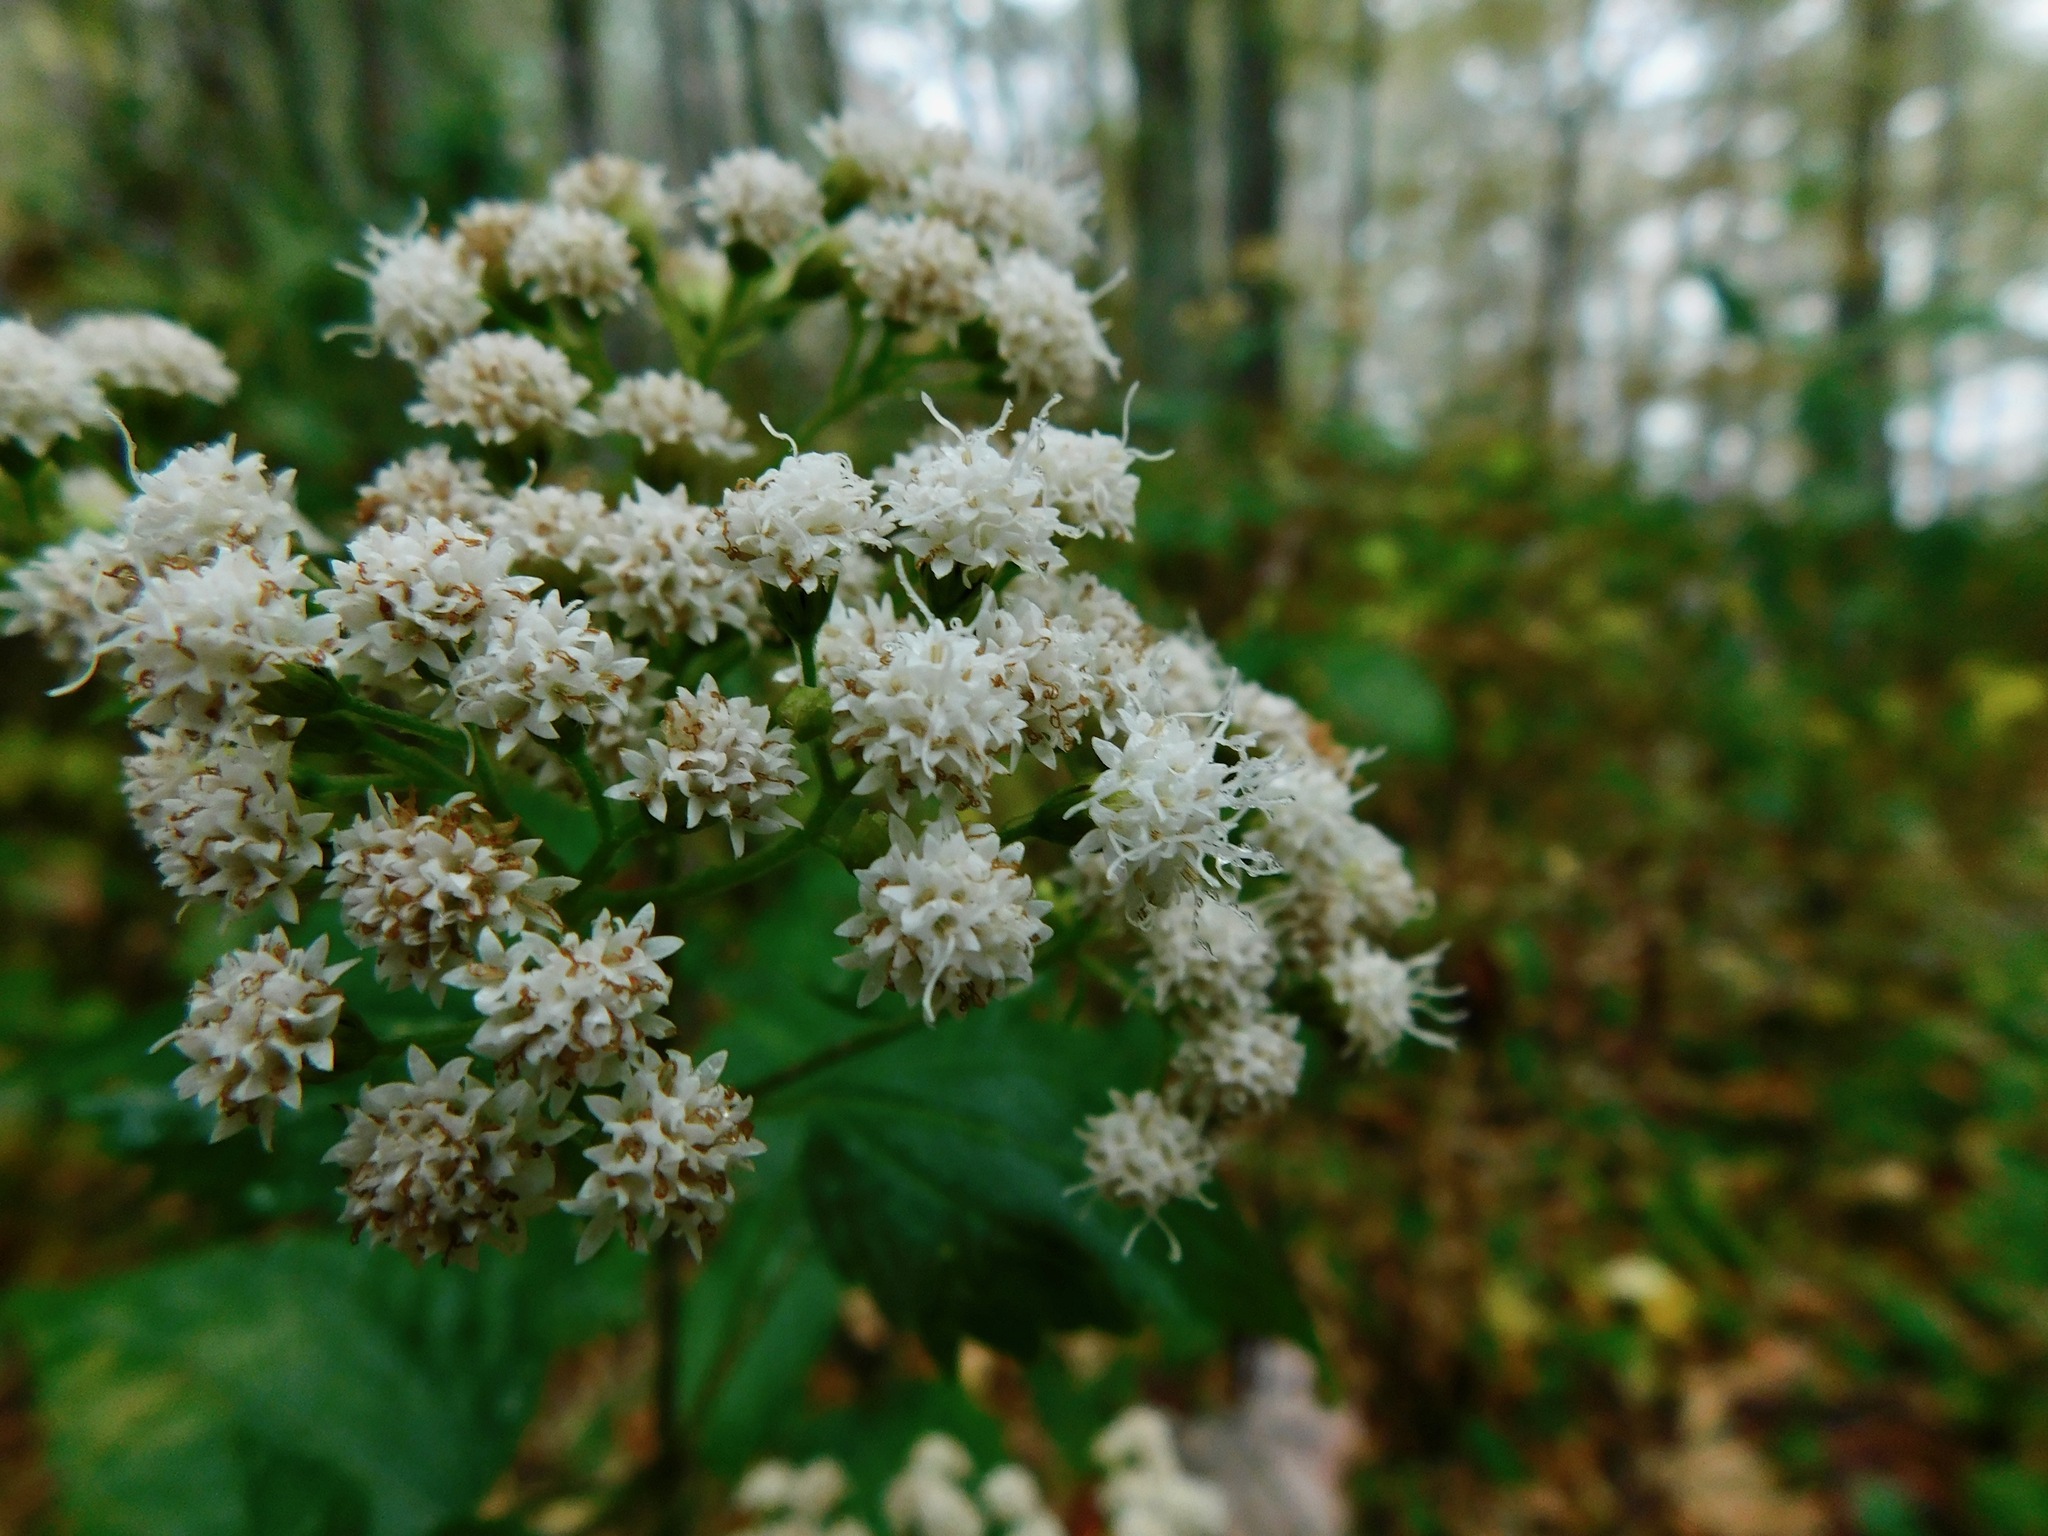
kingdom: Plantae
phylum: Tracheophyta
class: Magnoliopsida
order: Asterales
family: Asteraceae
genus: Ageratina
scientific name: Ageratina roanensis
